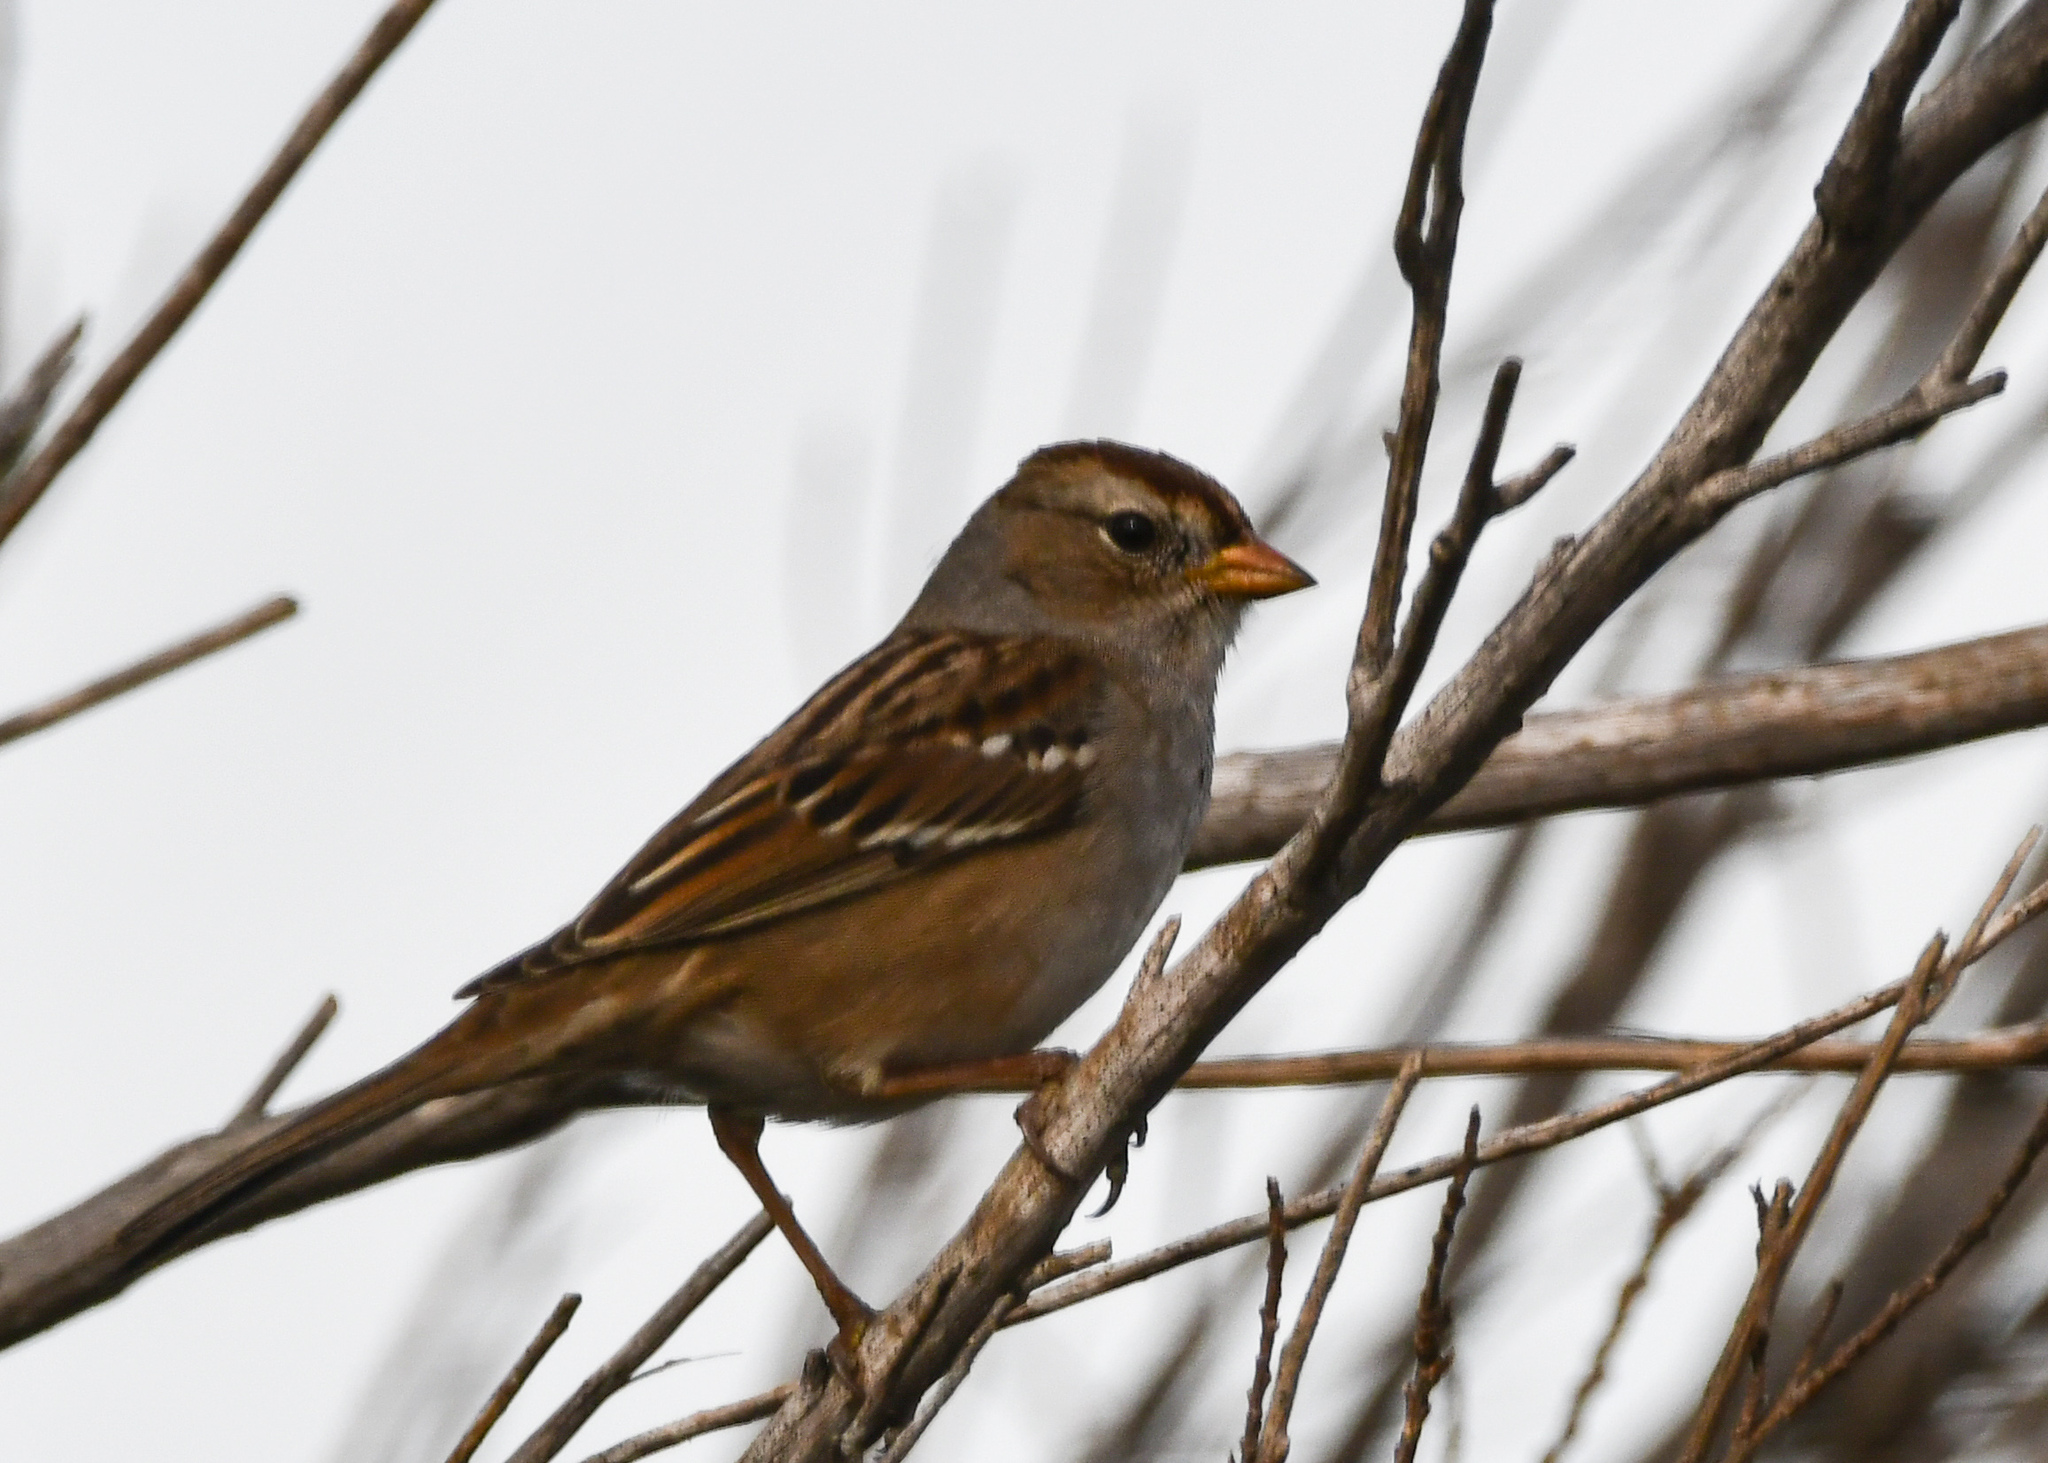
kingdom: Animalia
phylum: Chordata
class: Aves
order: Passeriformes
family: Passerellidae
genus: Zonotrichia
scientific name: Zonotrichia leucophrys
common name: White-crowned sparrow
